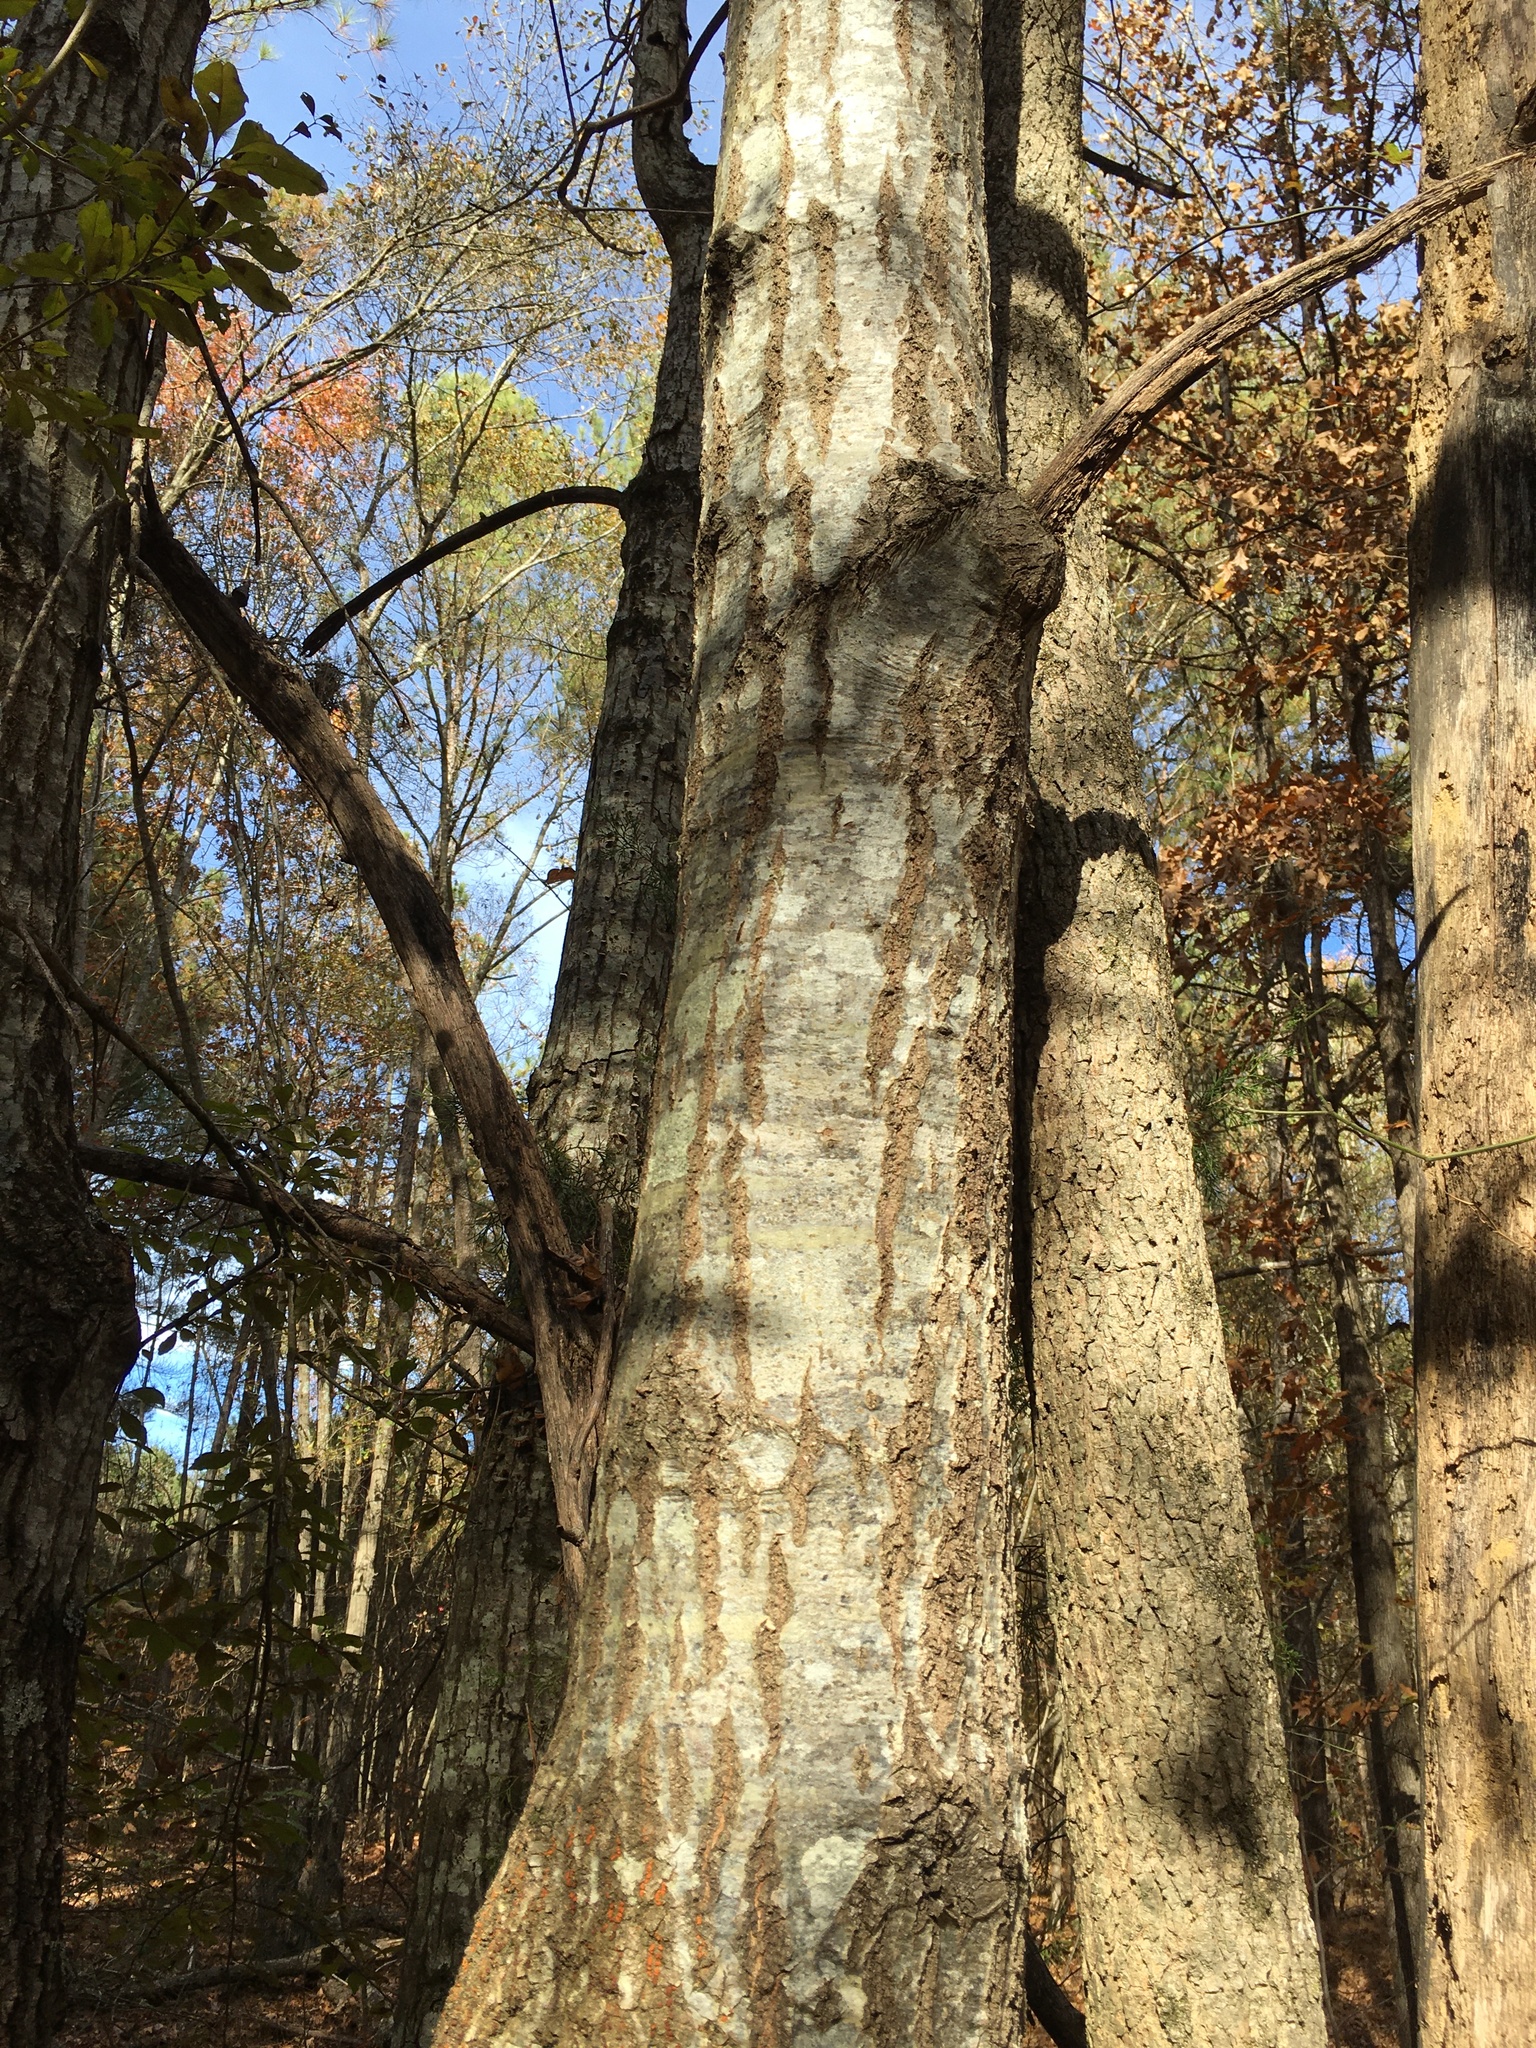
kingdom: Plantae
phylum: Tracheophyta
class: Magnoliopsida
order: Fagales
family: Fagaceae
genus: Quercus
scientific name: Quercus coccinea
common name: Scarlet oak
